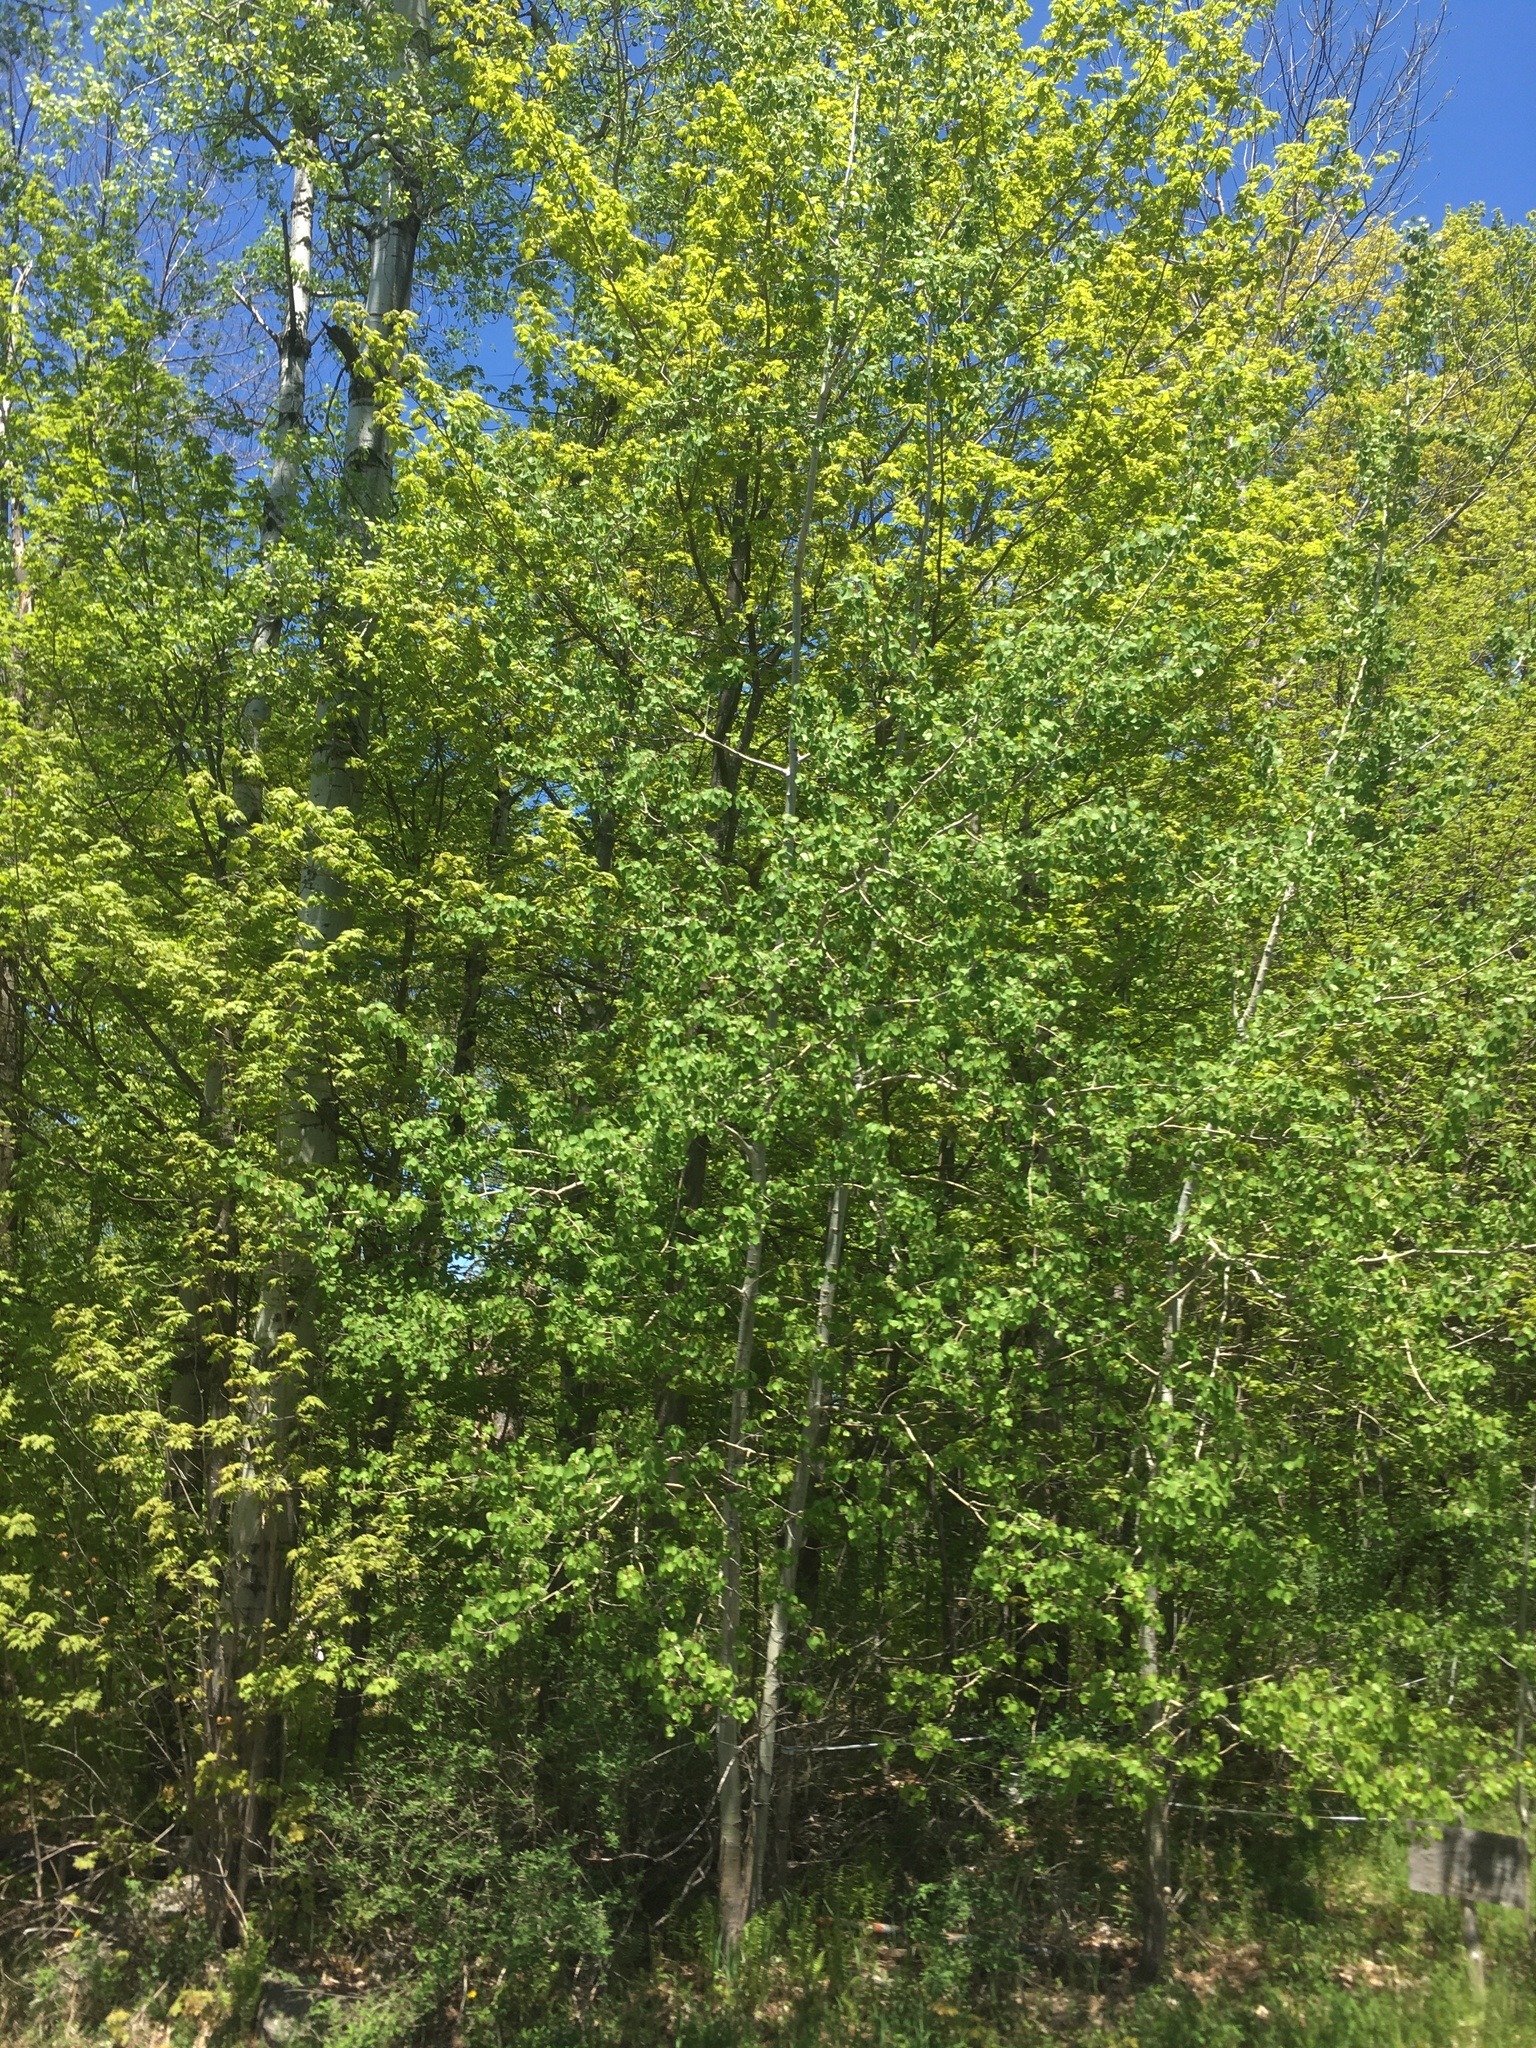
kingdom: Plantae
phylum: Tracheophyta
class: Magnoliopsida
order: Malpighiales
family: Salicaceae
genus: Populus
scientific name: Populus tremuloides
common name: Quaking aspen
